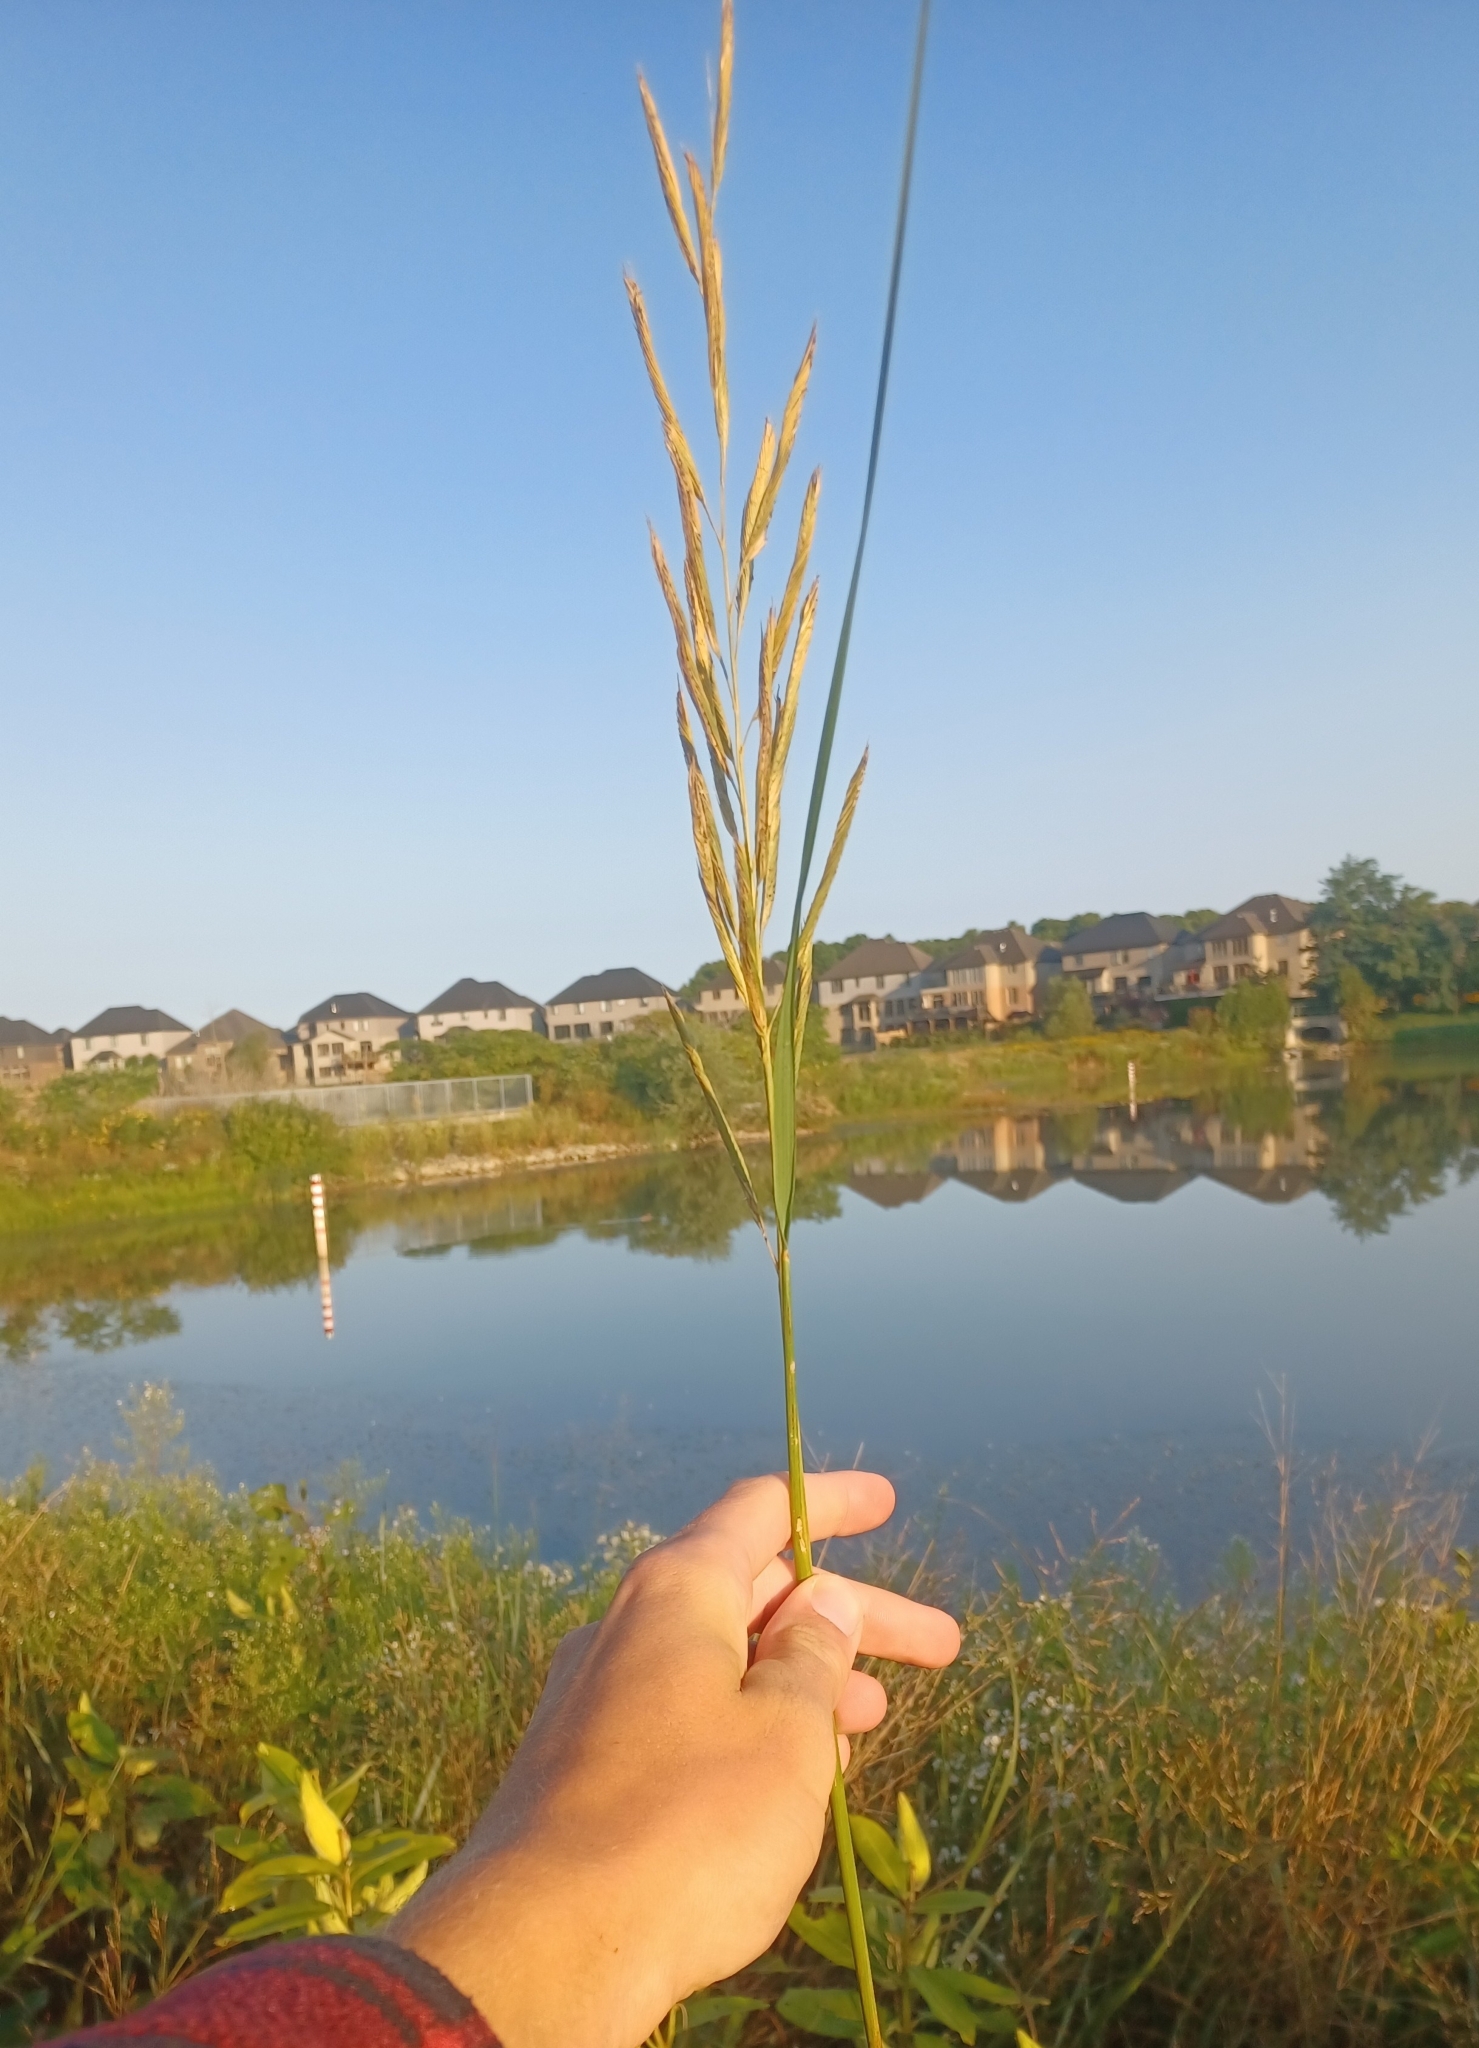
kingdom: Plantae
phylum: Tracheophyta
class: Liliopsida
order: Poales
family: Poaceae
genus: Sporobolus
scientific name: Sporobolus michauxianus
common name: Freshwater cordgrass
